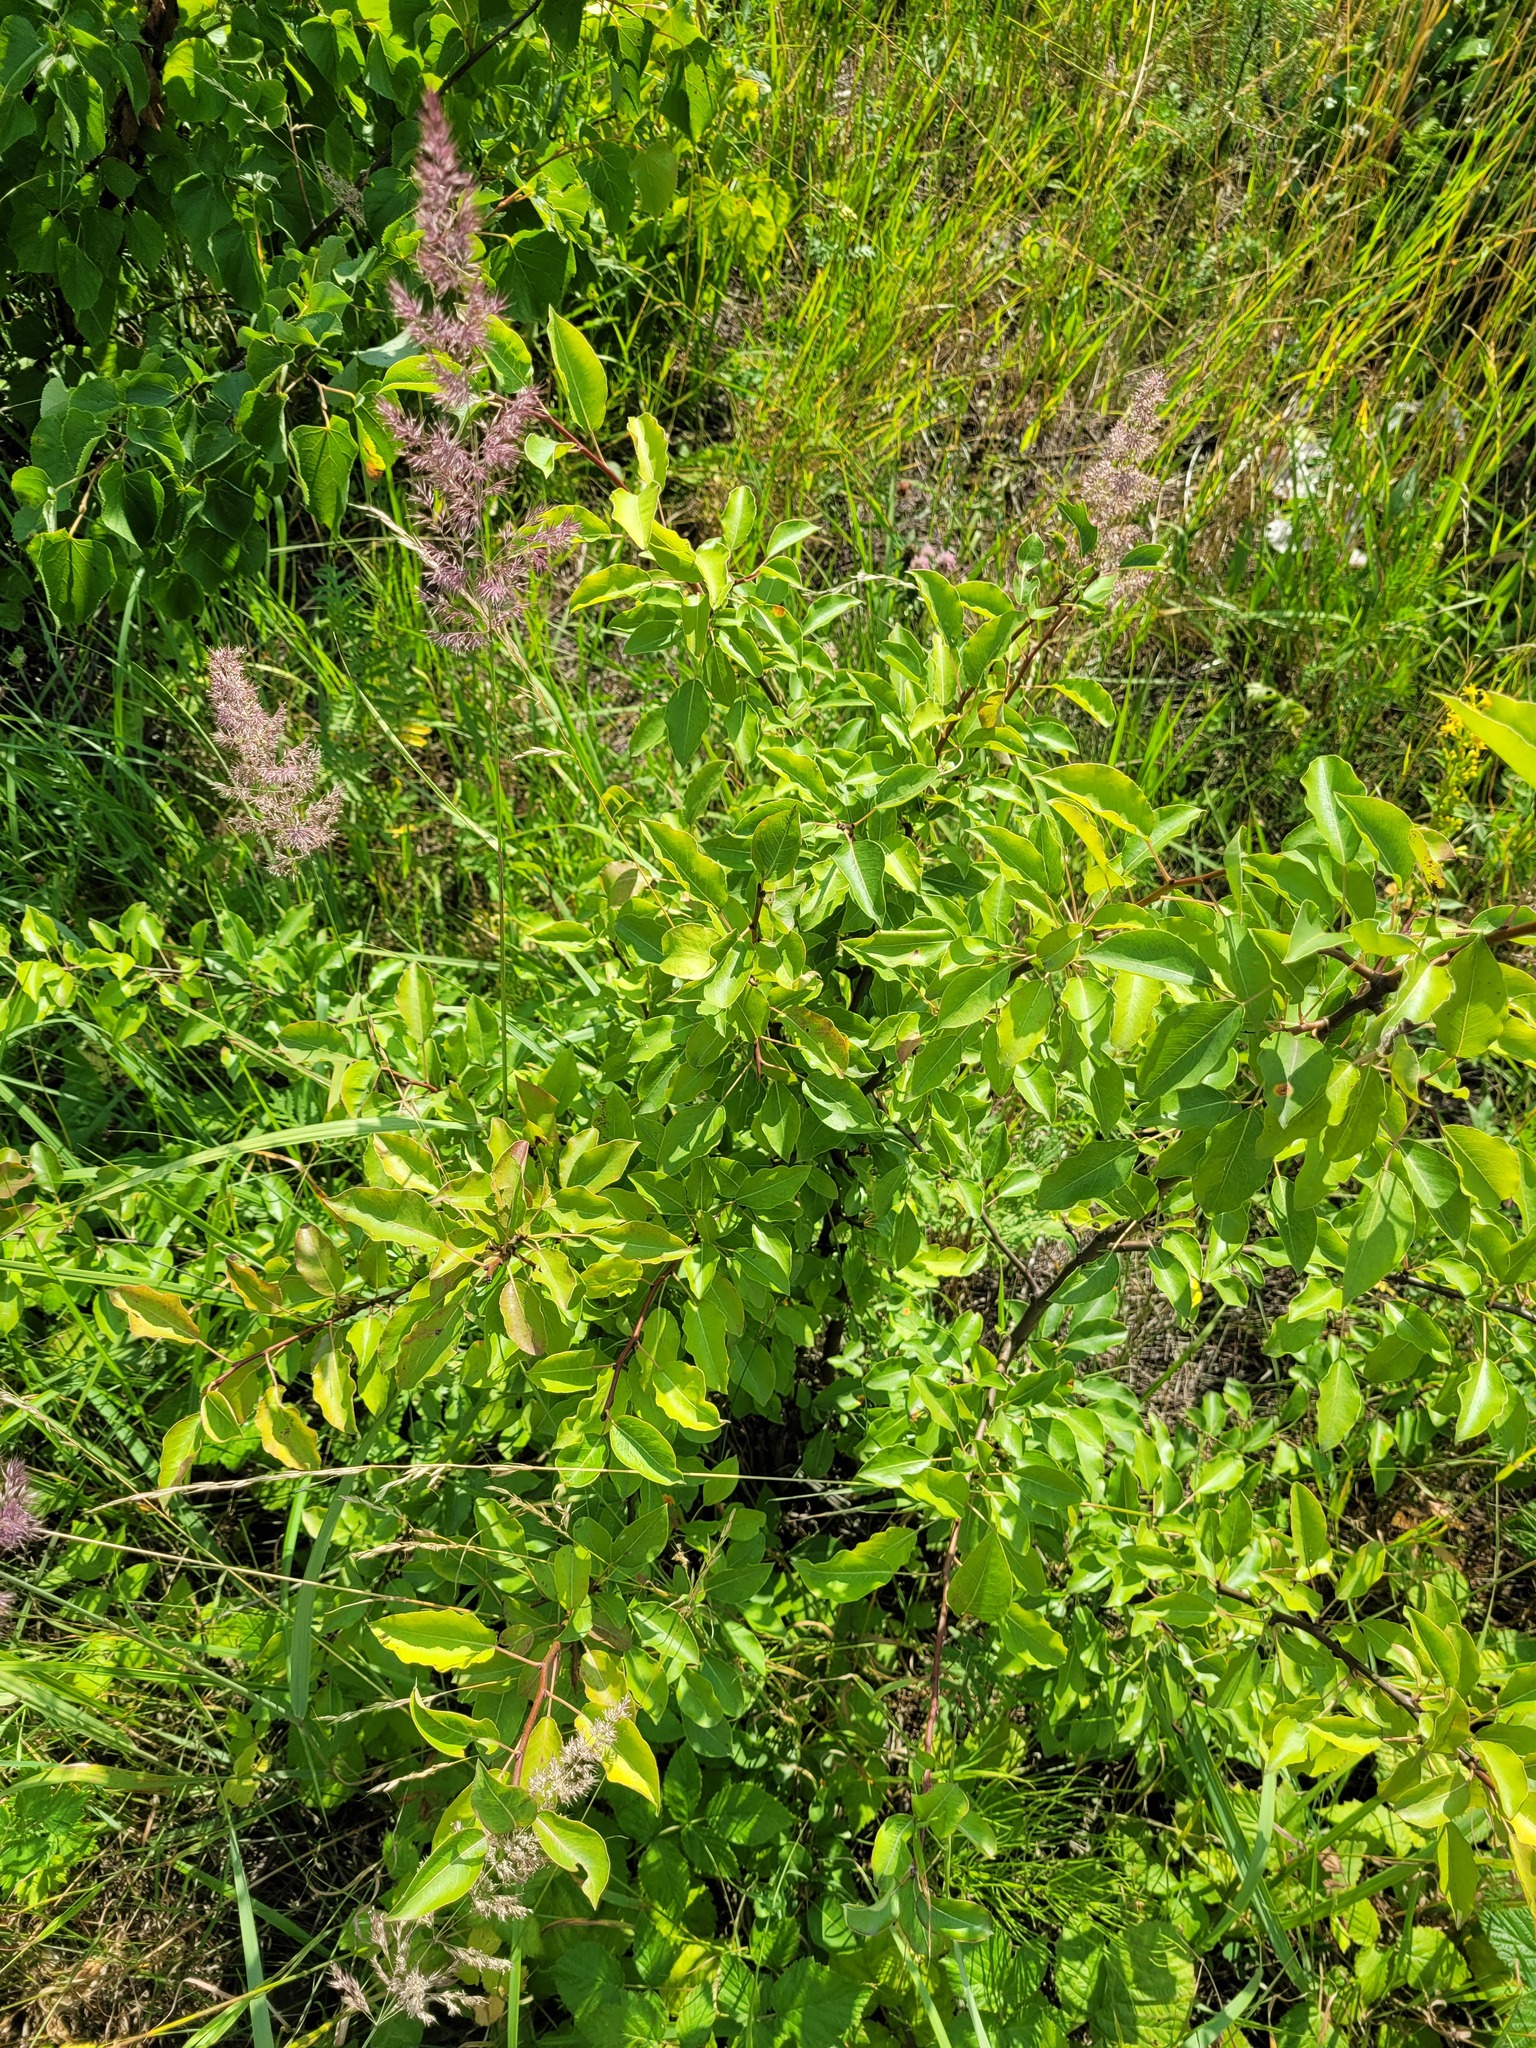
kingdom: Plantae
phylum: Tracheophyta
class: Magnoliopsida
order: Rosales
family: Rosaceae
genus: Pyrus
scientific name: Pyrus communis
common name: Pear
